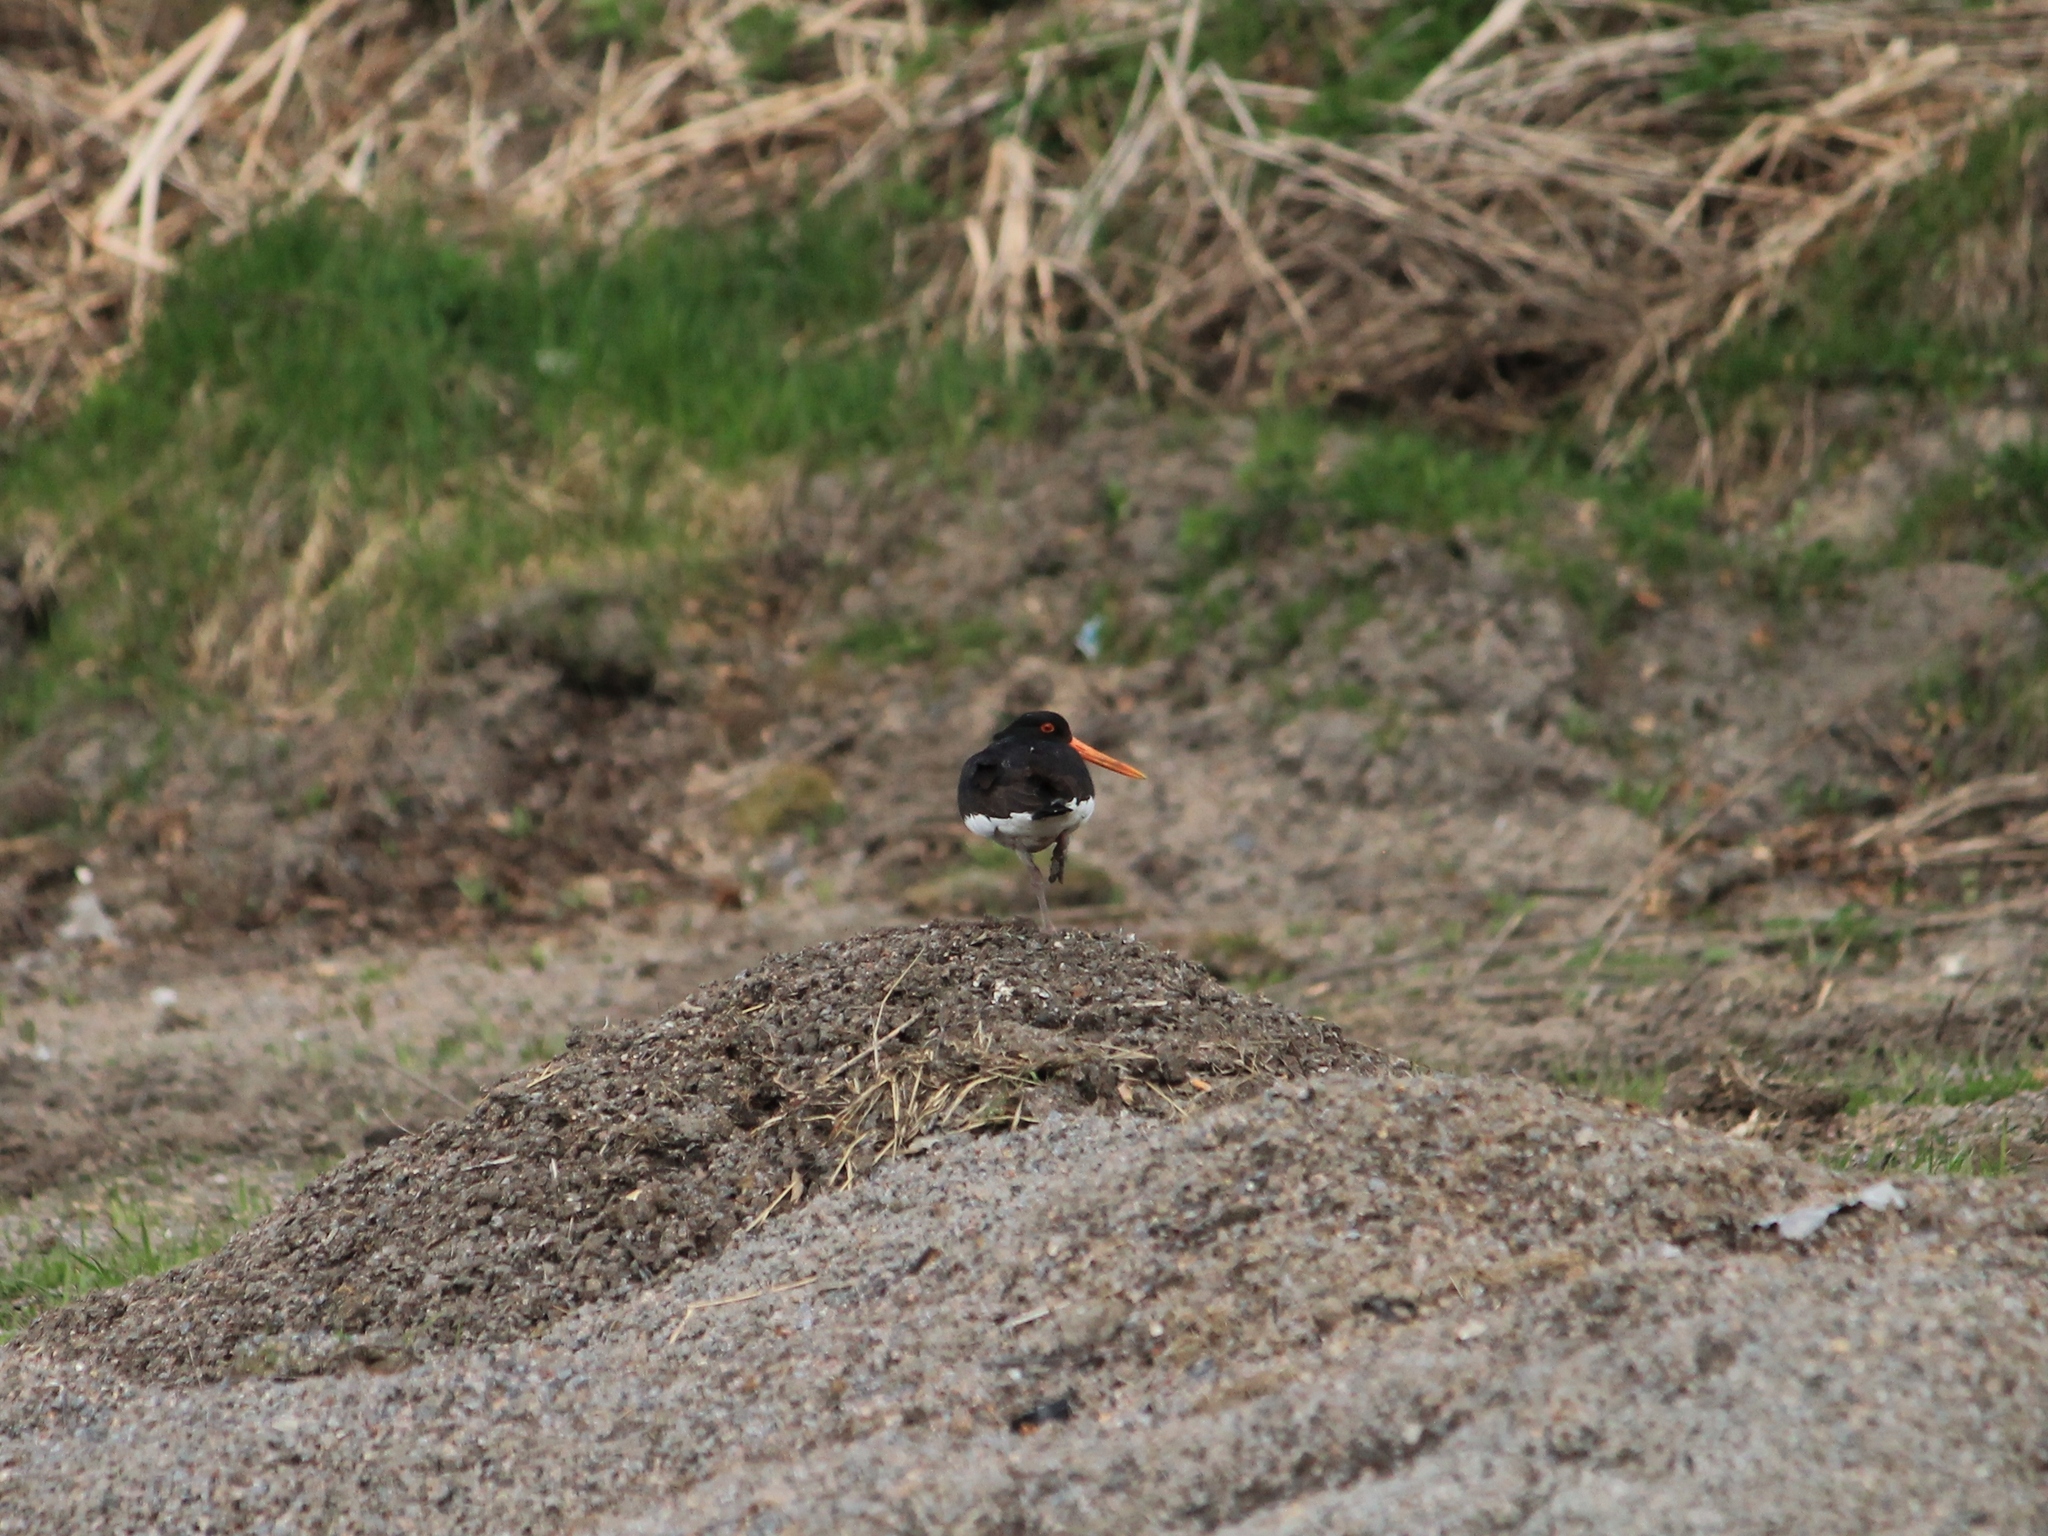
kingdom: Animalia
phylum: Chordata
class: Aves
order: Charadriiformes
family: Haematopodidae
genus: Haematopus
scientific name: Haematopus ostralegus
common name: Eurasian oystercatcher
